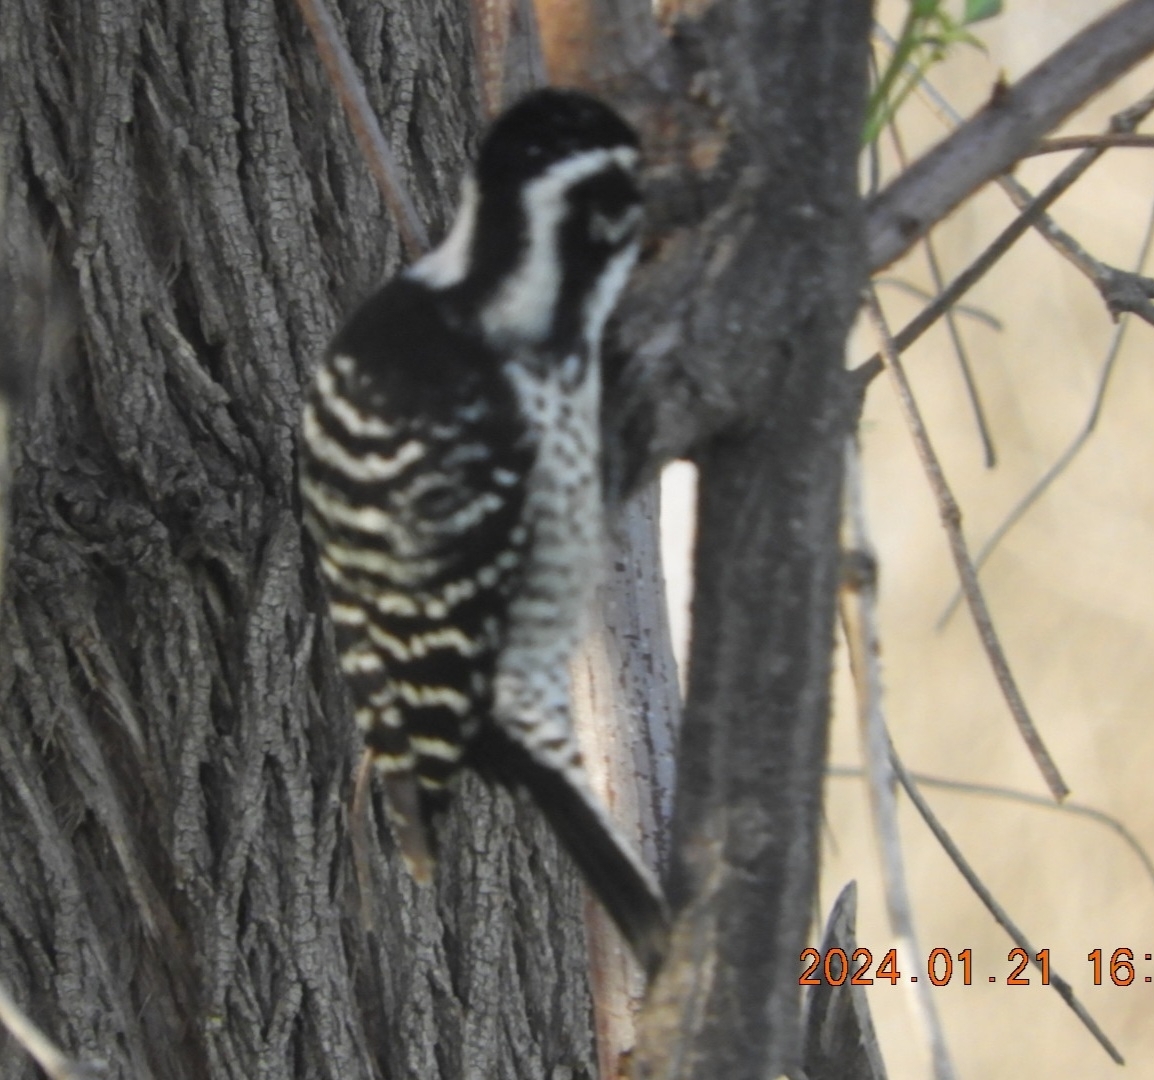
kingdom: Animalia
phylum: Chordata
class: Aves
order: Piciformes
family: Picidae
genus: Dryobates
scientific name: Dryobates nuttallii
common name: Nuttall's woodpecker
